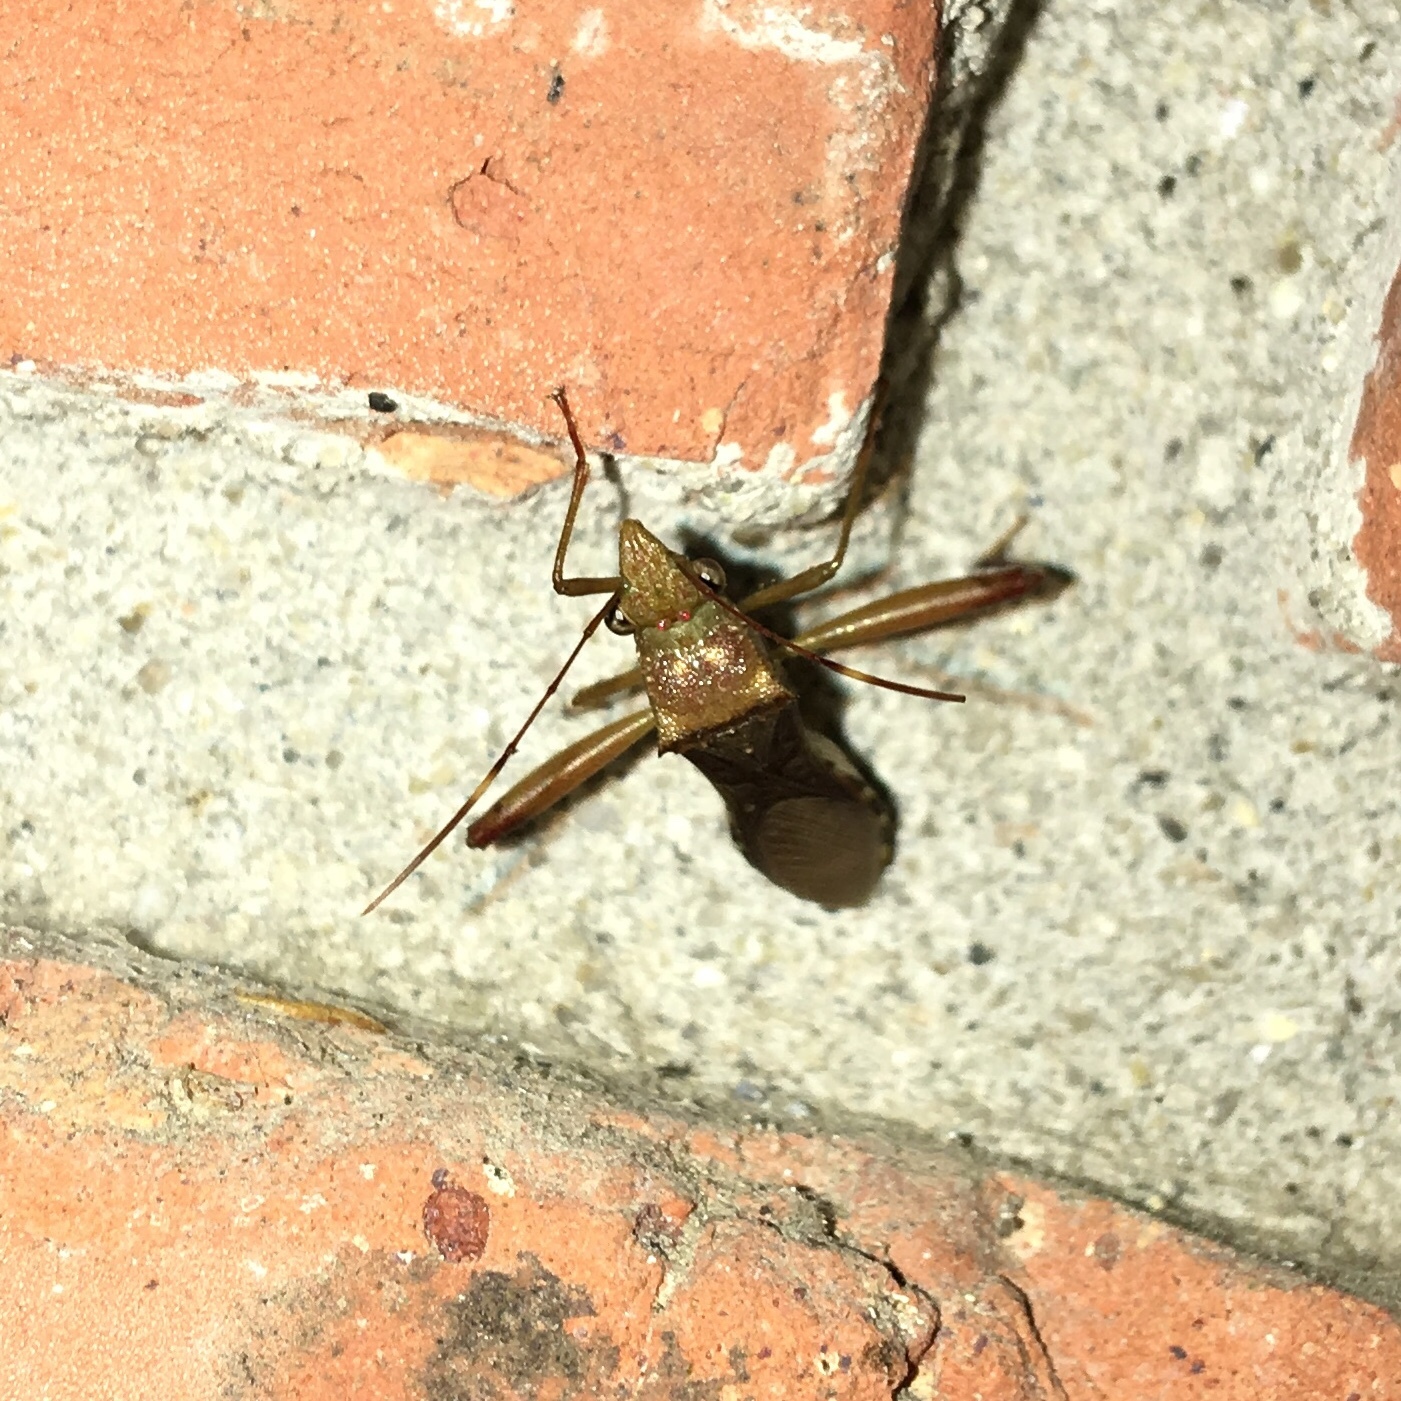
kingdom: Animalia
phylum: Arthropoda
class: Insecta
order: Hemiptera
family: Alydidae
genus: Hyalymenus
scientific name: Hyalymenus tarsatus
